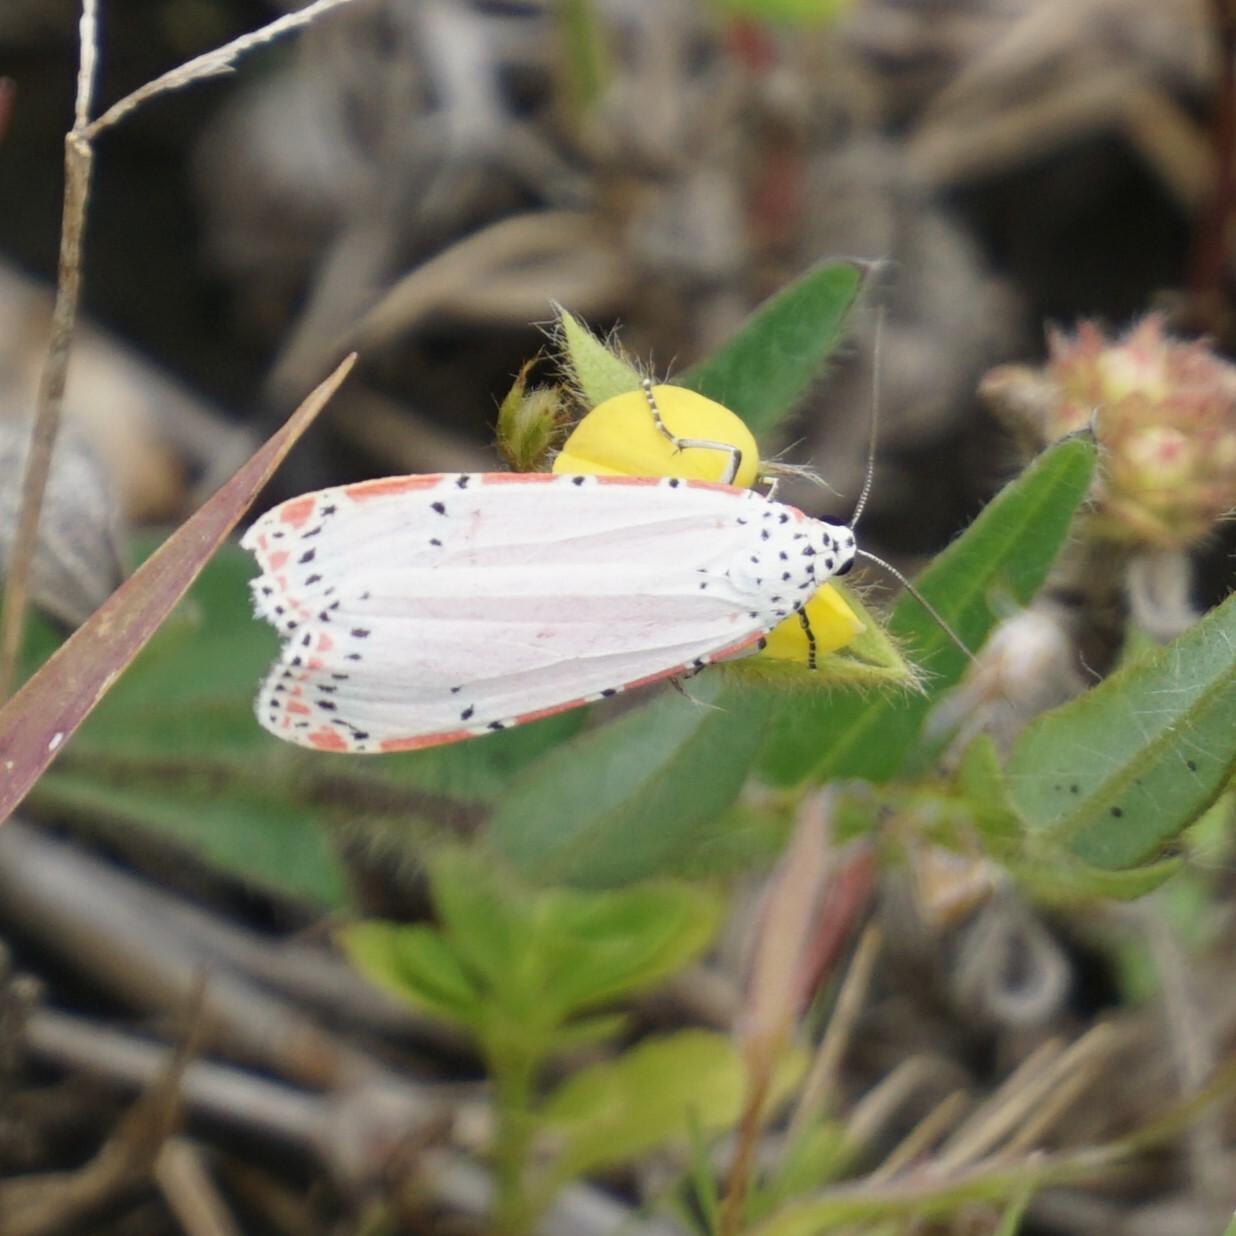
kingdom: Animalia
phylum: Arthropoda
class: Insecta
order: Lepidoptera
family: Erebidae
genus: Utetheisa
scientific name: Utetheisa ornatrix
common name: Beautiful utetheisa
